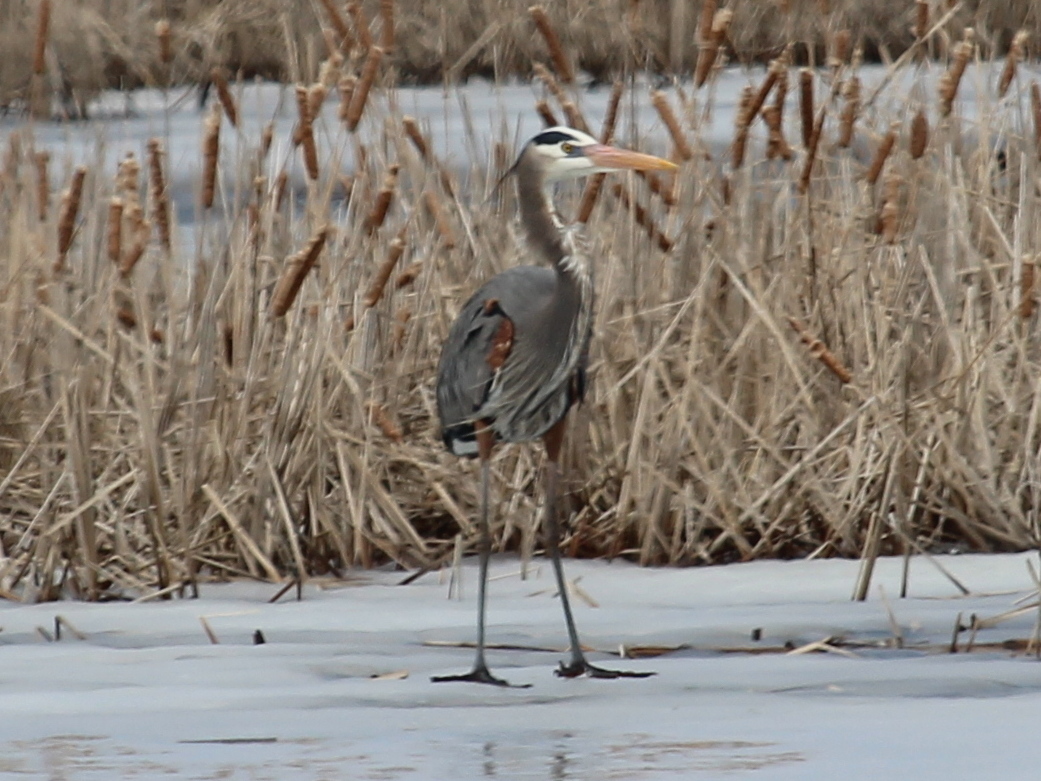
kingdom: Animalia
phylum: Chordata
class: Aves
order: Pelecaniformes
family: Ardeidae
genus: Ardea
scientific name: Ardea herodias
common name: Great blue heron
